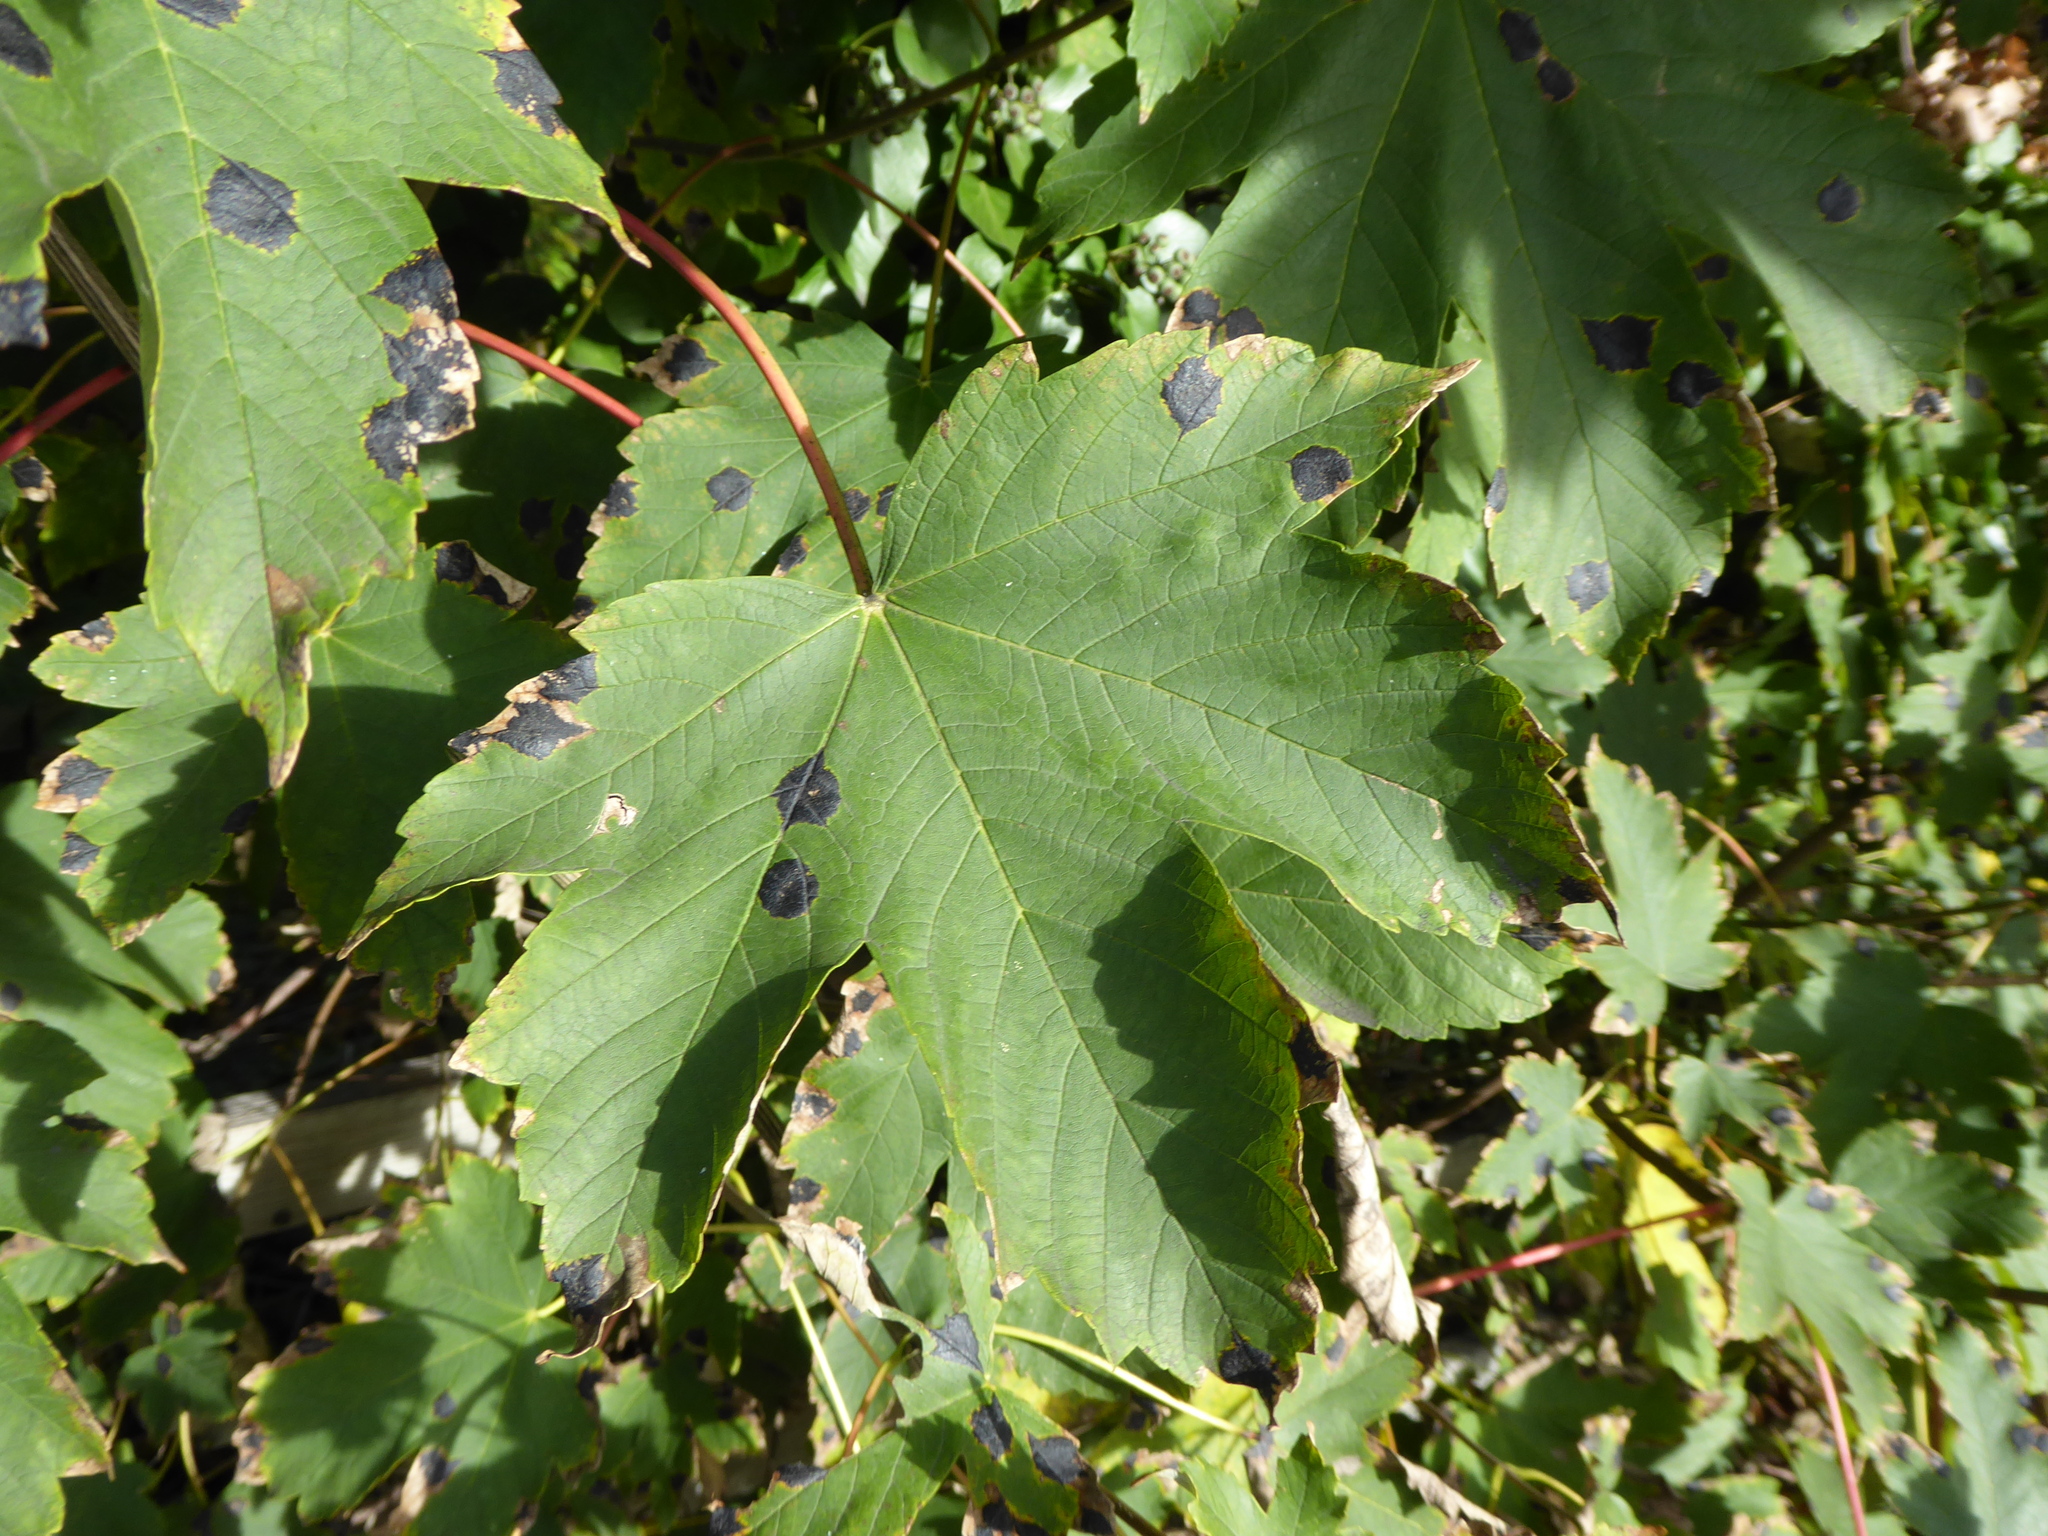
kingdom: Plantae
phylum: Tracheophyta
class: Magnoliopsida
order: Sapindales
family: Sapindaceae
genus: Acer
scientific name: Acer pseudoplatanus
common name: Sycamore
